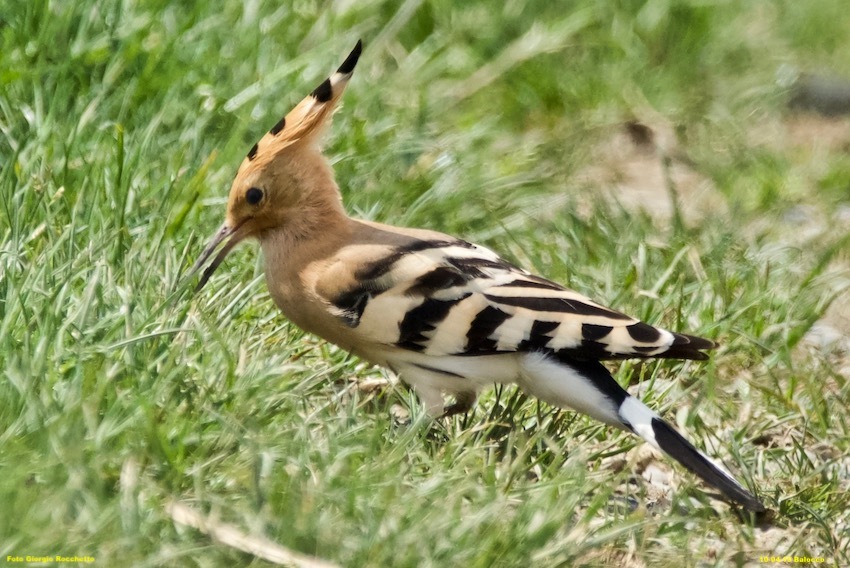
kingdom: Animalia
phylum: Chordata
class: Aves
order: Bucerotiformes
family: Upupidae
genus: Upupa
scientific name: Upupa epops
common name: Eurasian hoopoe
